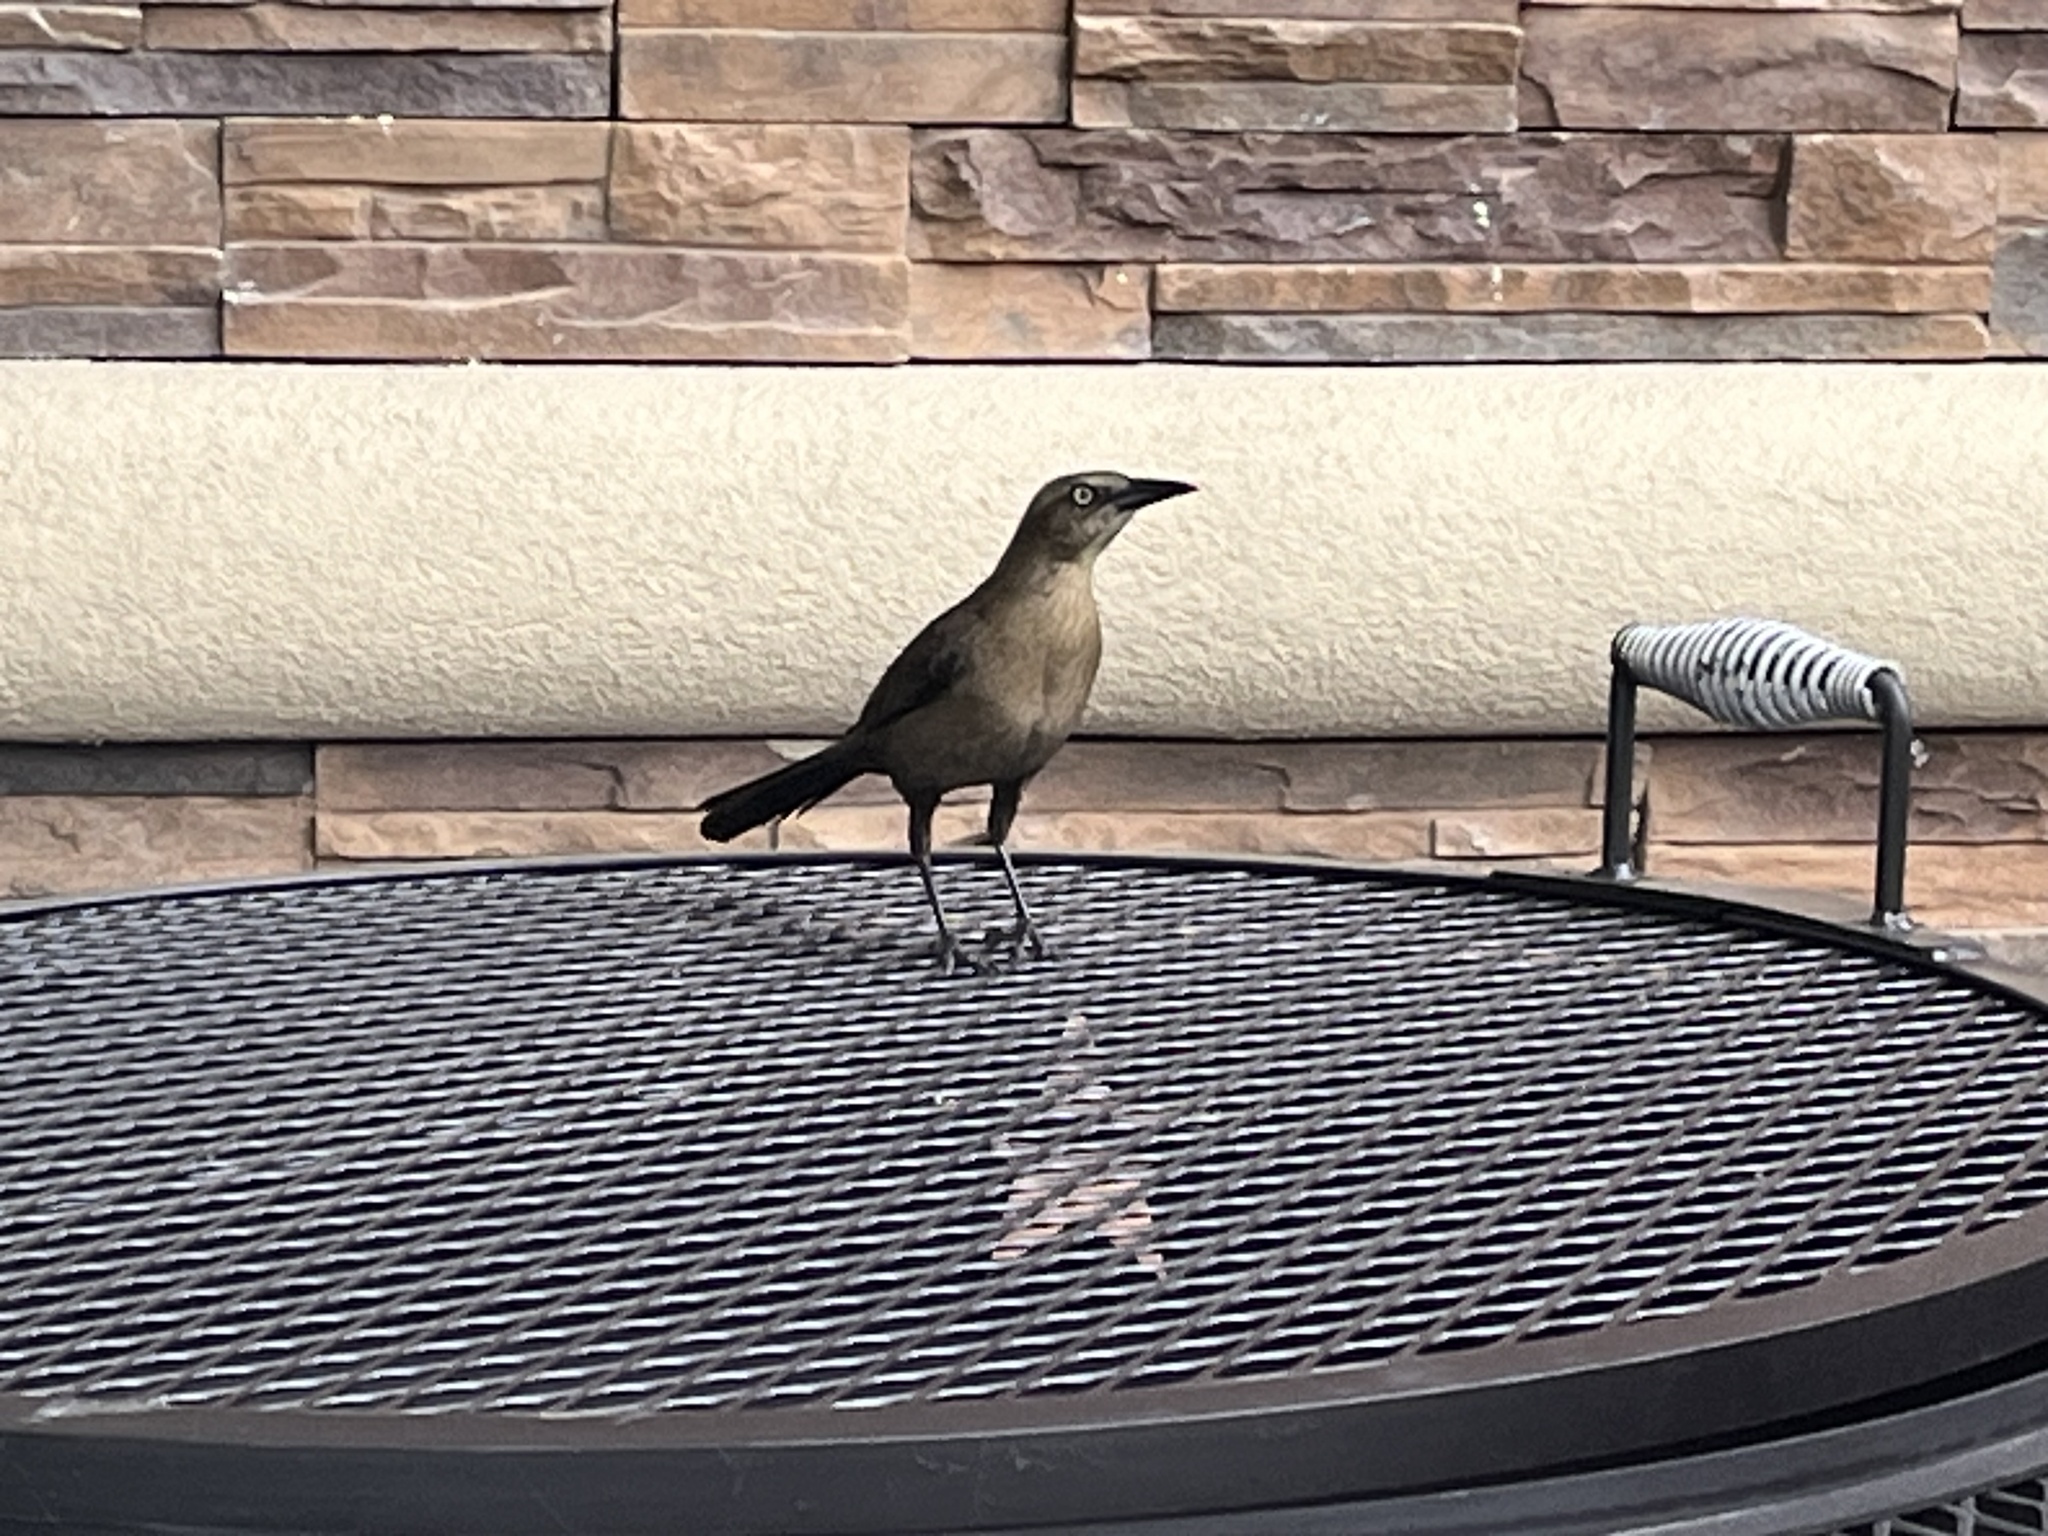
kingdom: Animalia
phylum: Chordata
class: Aves
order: Passeriformes
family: Icteridae
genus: Quiscalus
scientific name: Quiscalus mexicanus
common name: Great-tailed grackle
